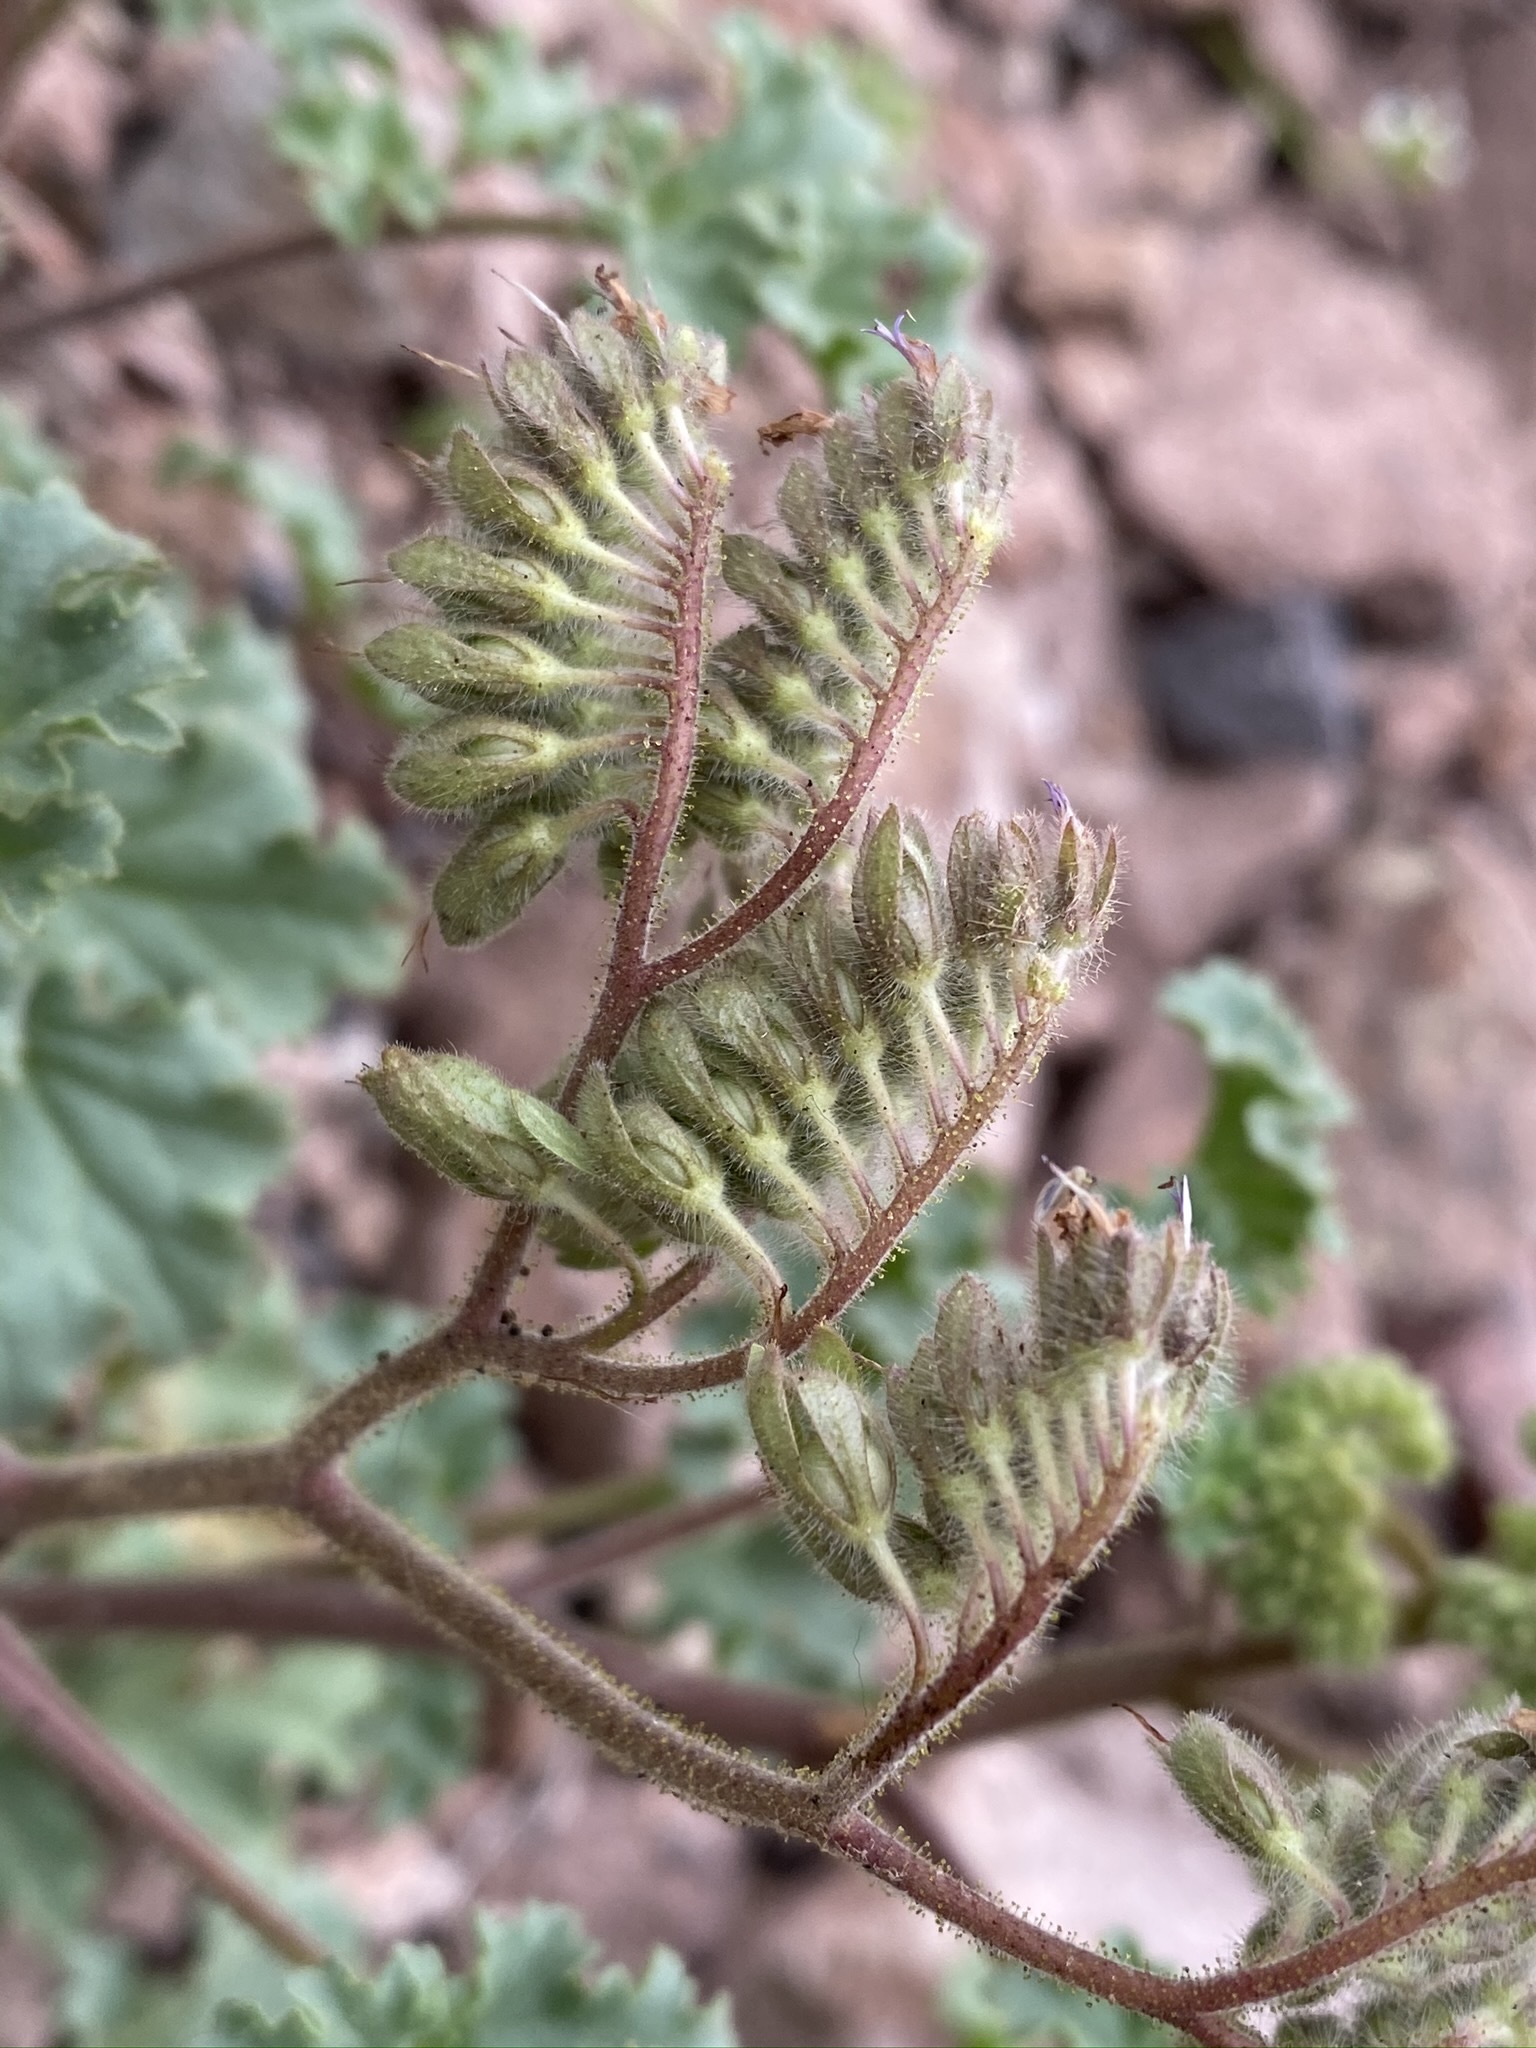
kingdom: Plantae
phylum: Tracheophyta
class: Magnoliopsida
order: Boraginales
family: Hydrophyllaceae
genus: Phacelia
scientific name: Phacelia pedicellata
